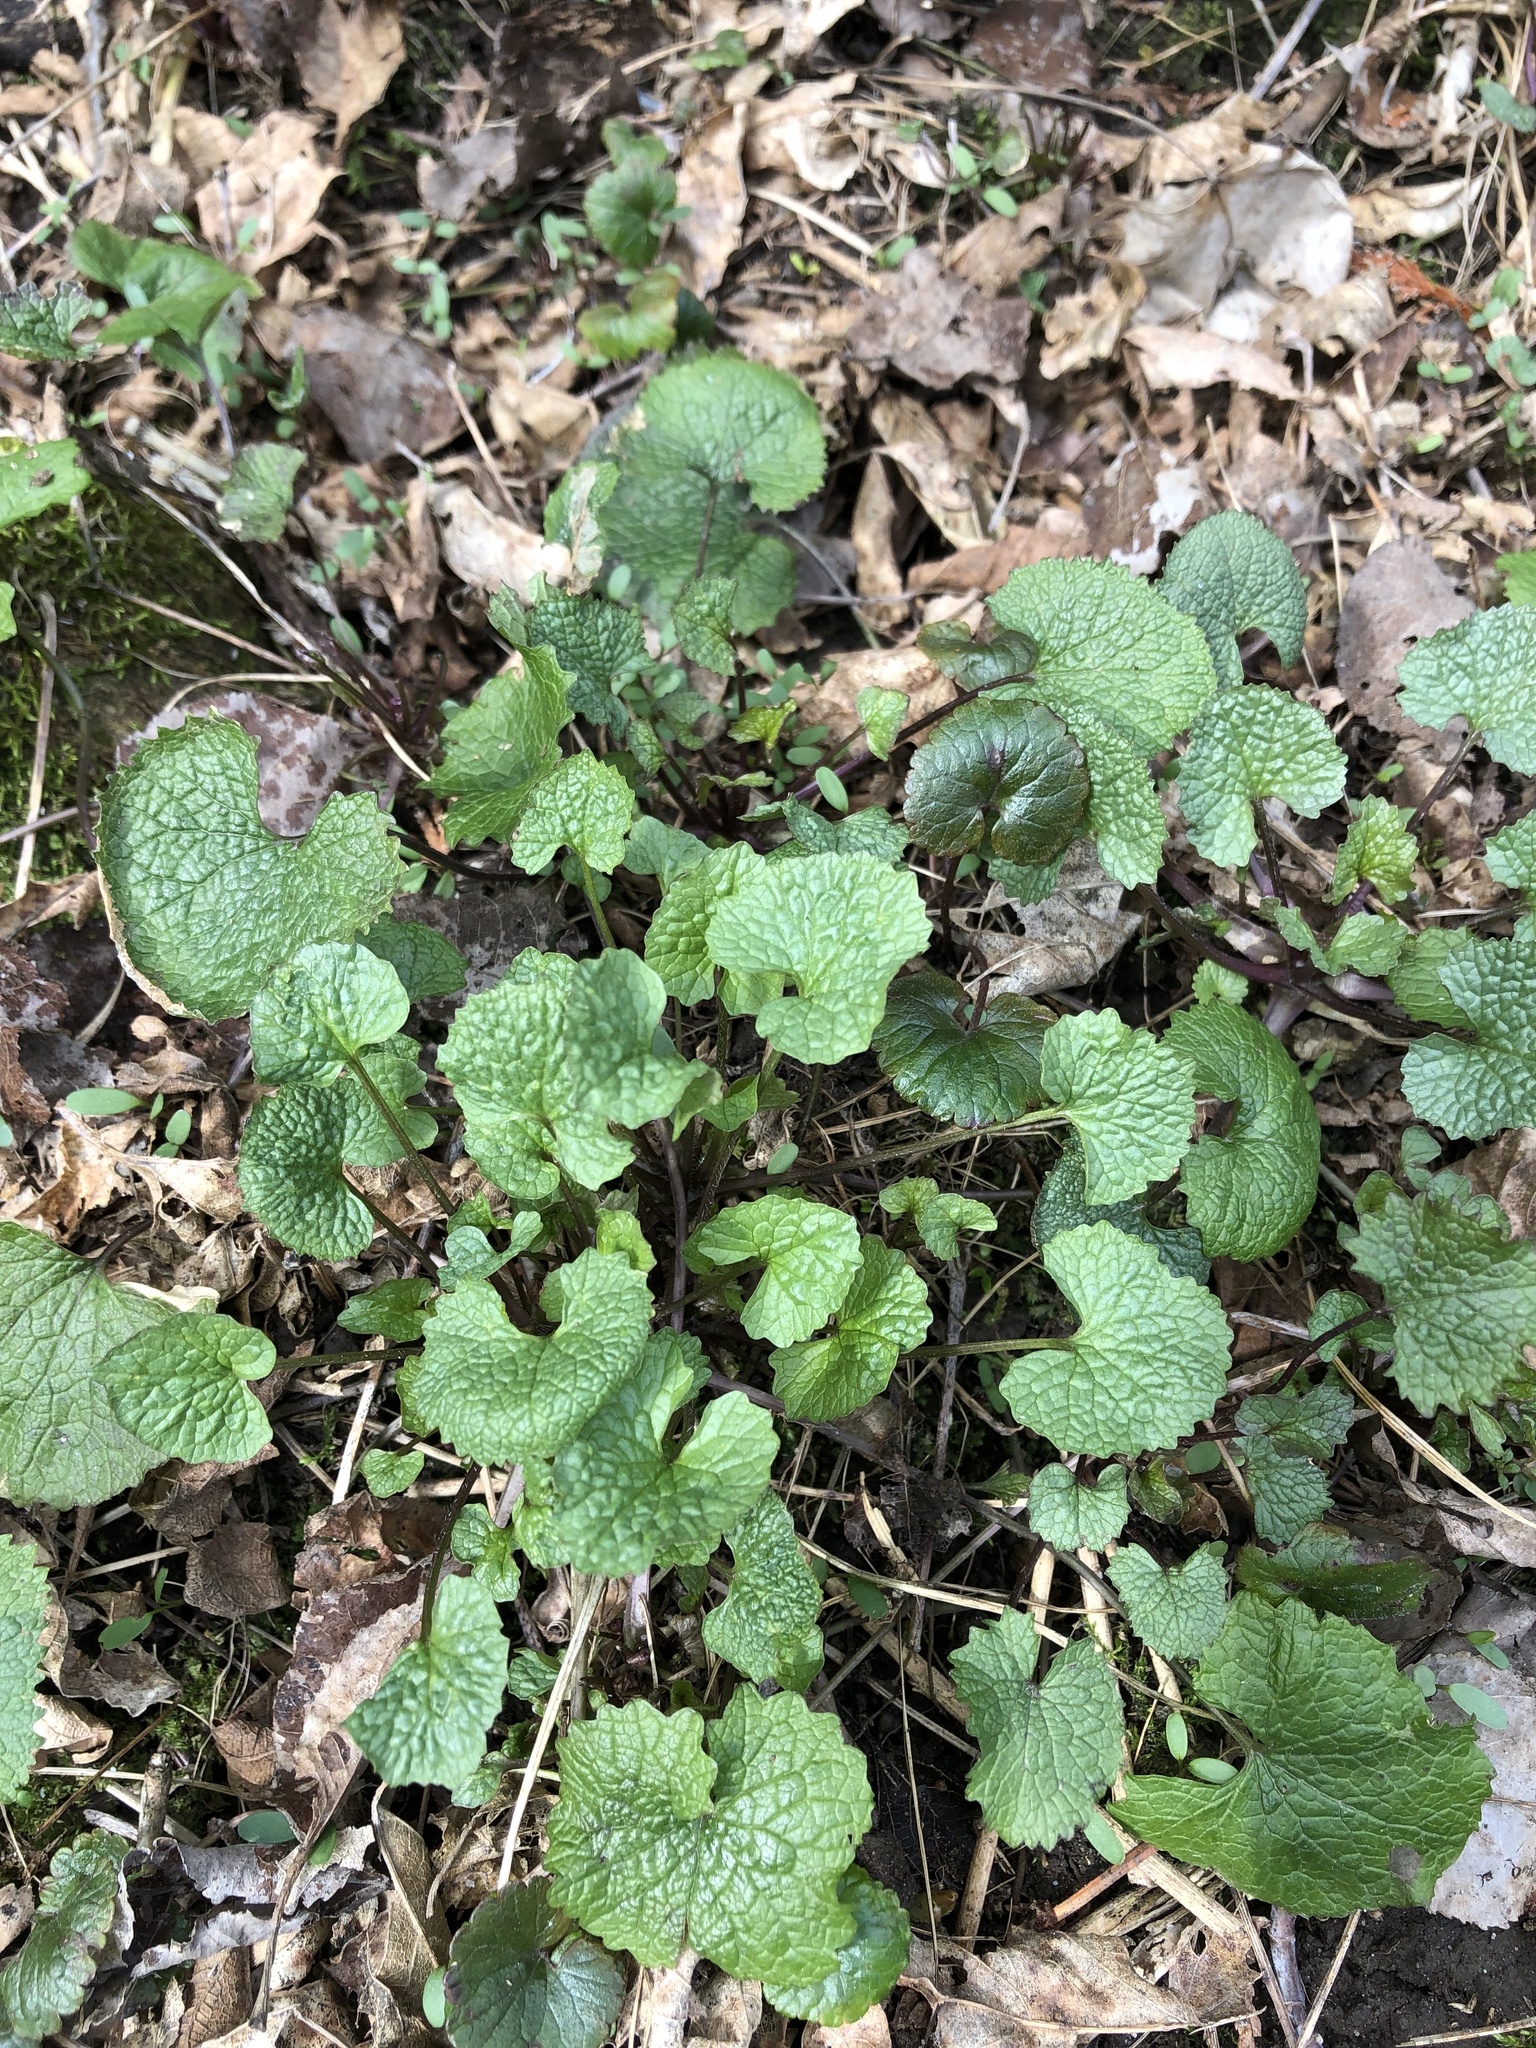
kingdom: Plantae
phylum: Tracheophyta
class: Magnoliopsida
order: Brassicales
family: Brassicaceae
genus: Alliaria
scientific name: Alliaria petiolata
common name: Garlic mustard
